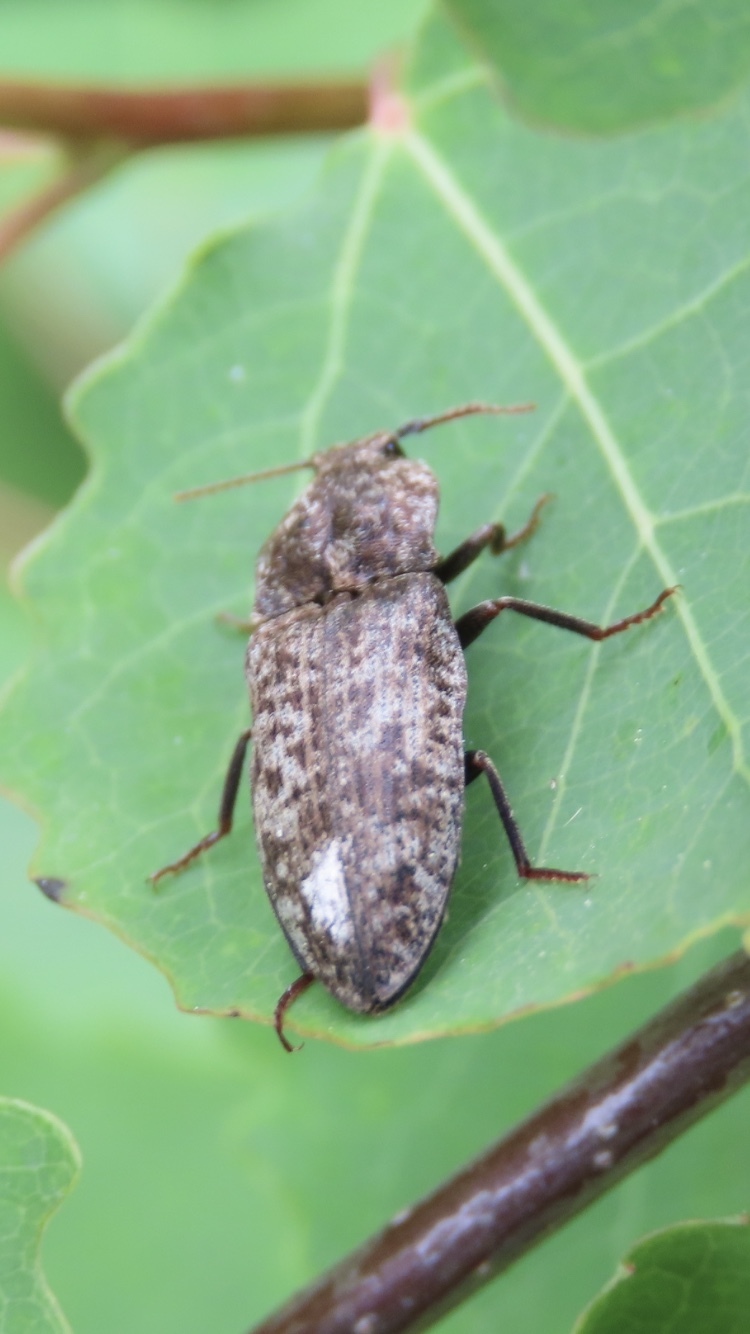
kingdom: Animalia
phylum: Arthropoda
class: Insecta
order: Coleoptera
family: Elateridae
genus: Agrypnus
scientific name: Agrypnus murinus
